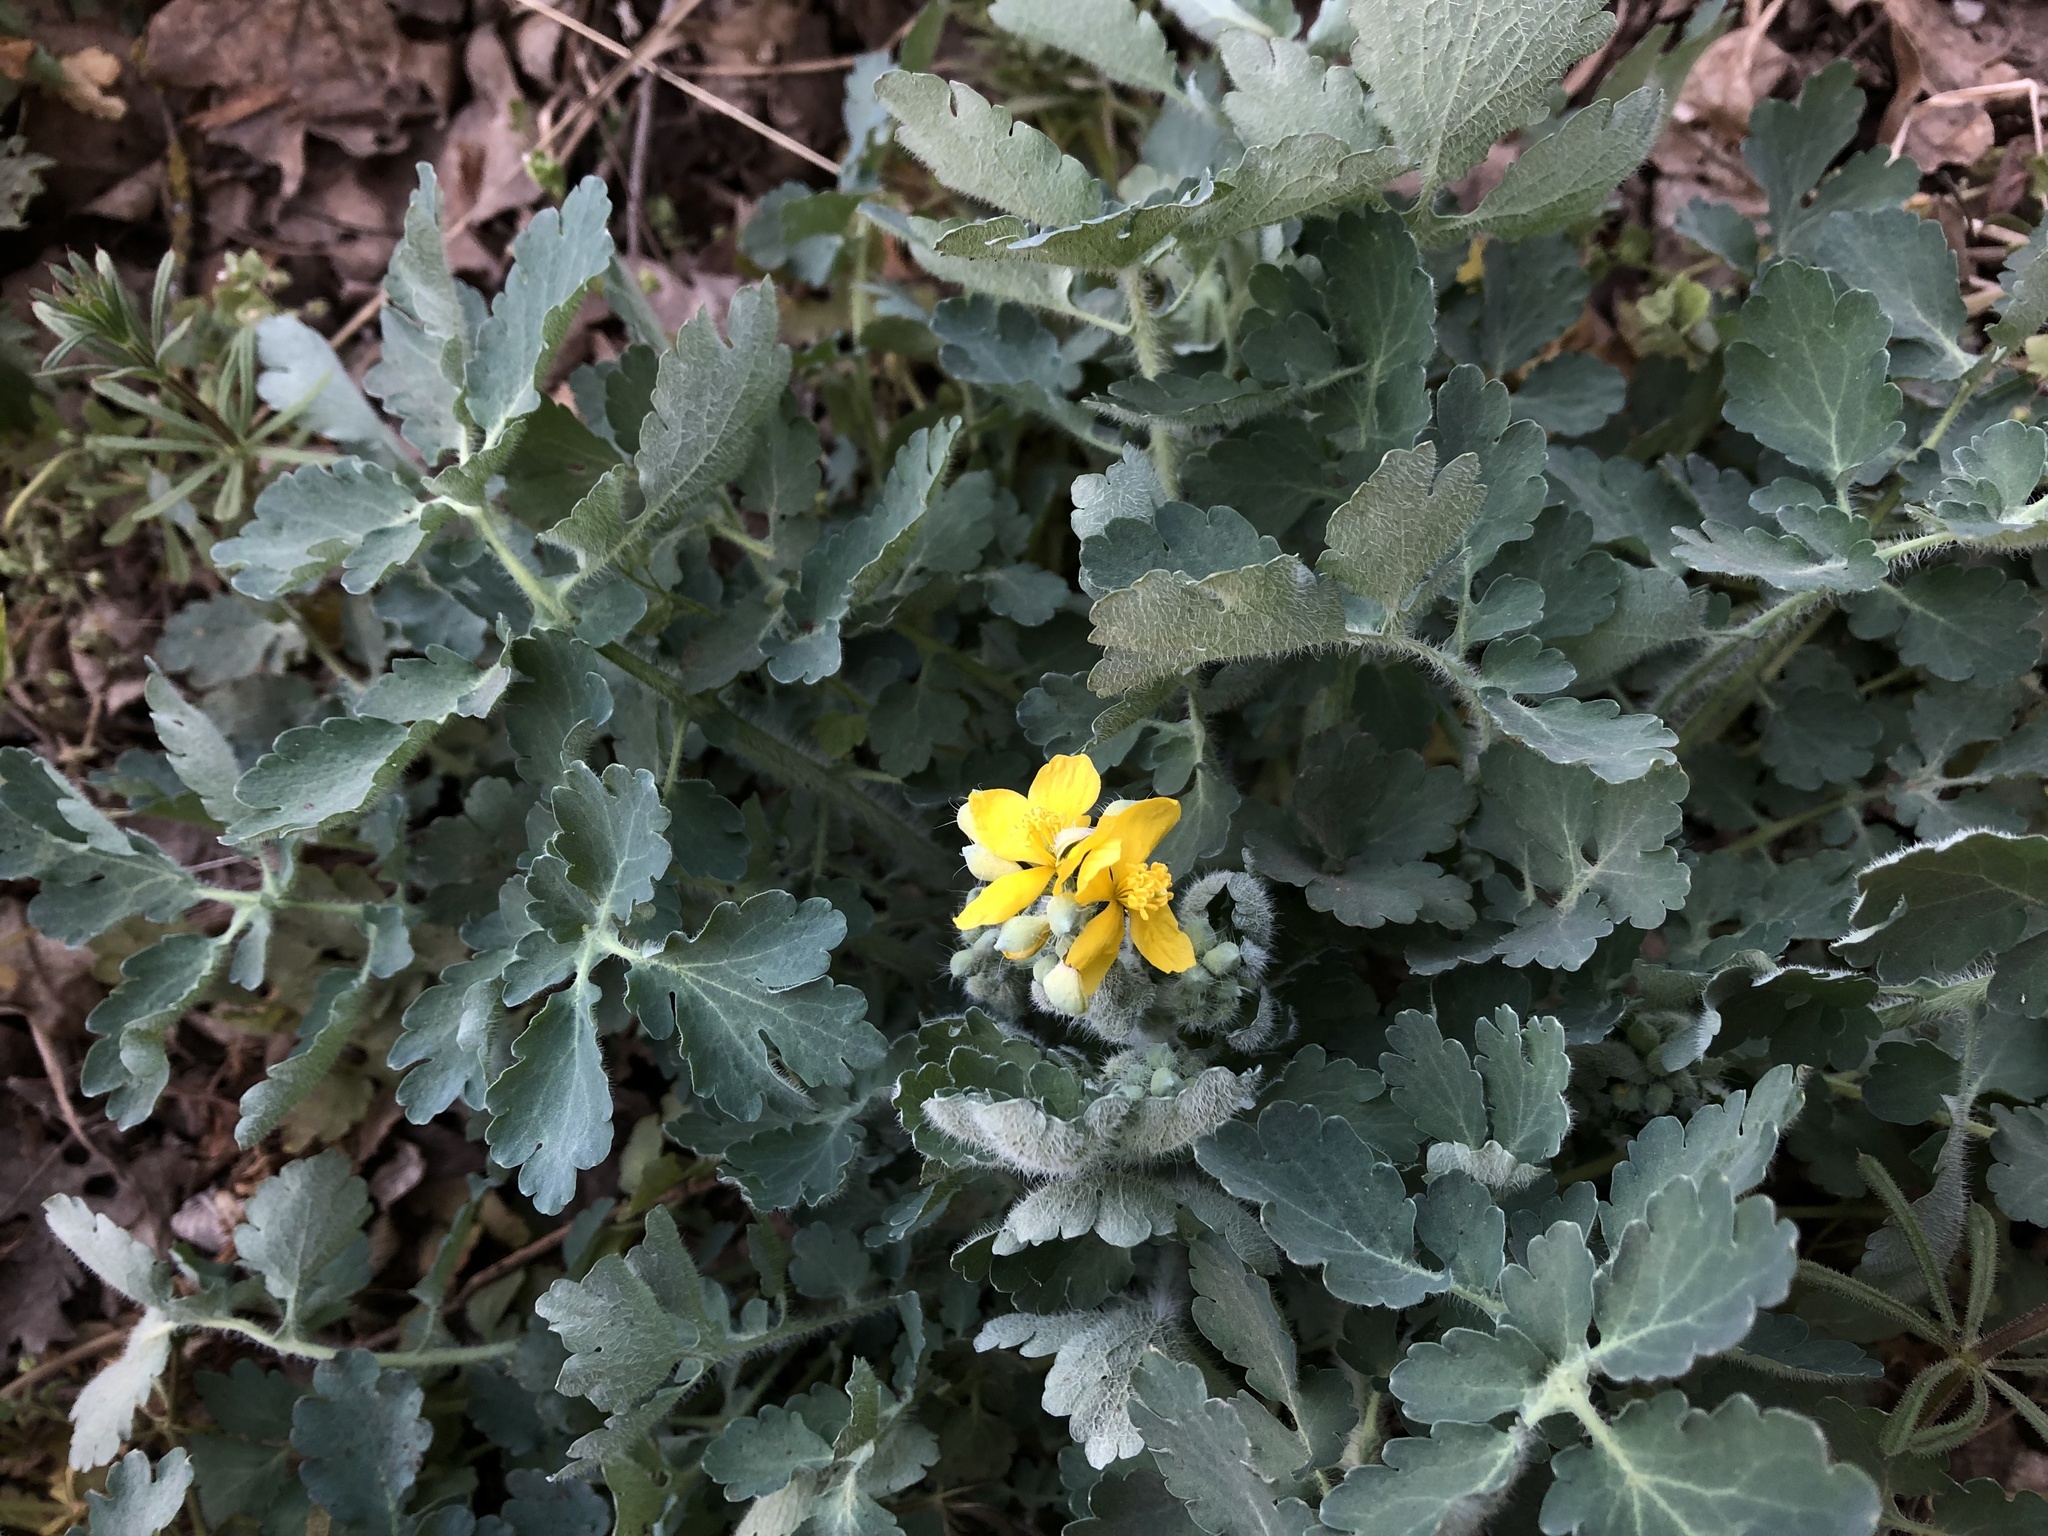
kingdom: Plantae
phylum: Tracheophyta
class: Magnoliopsida
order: Ranunculales
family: Papaveraceae
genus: Chelidonium
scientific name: Chelidonium majus
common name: Greater celandine
